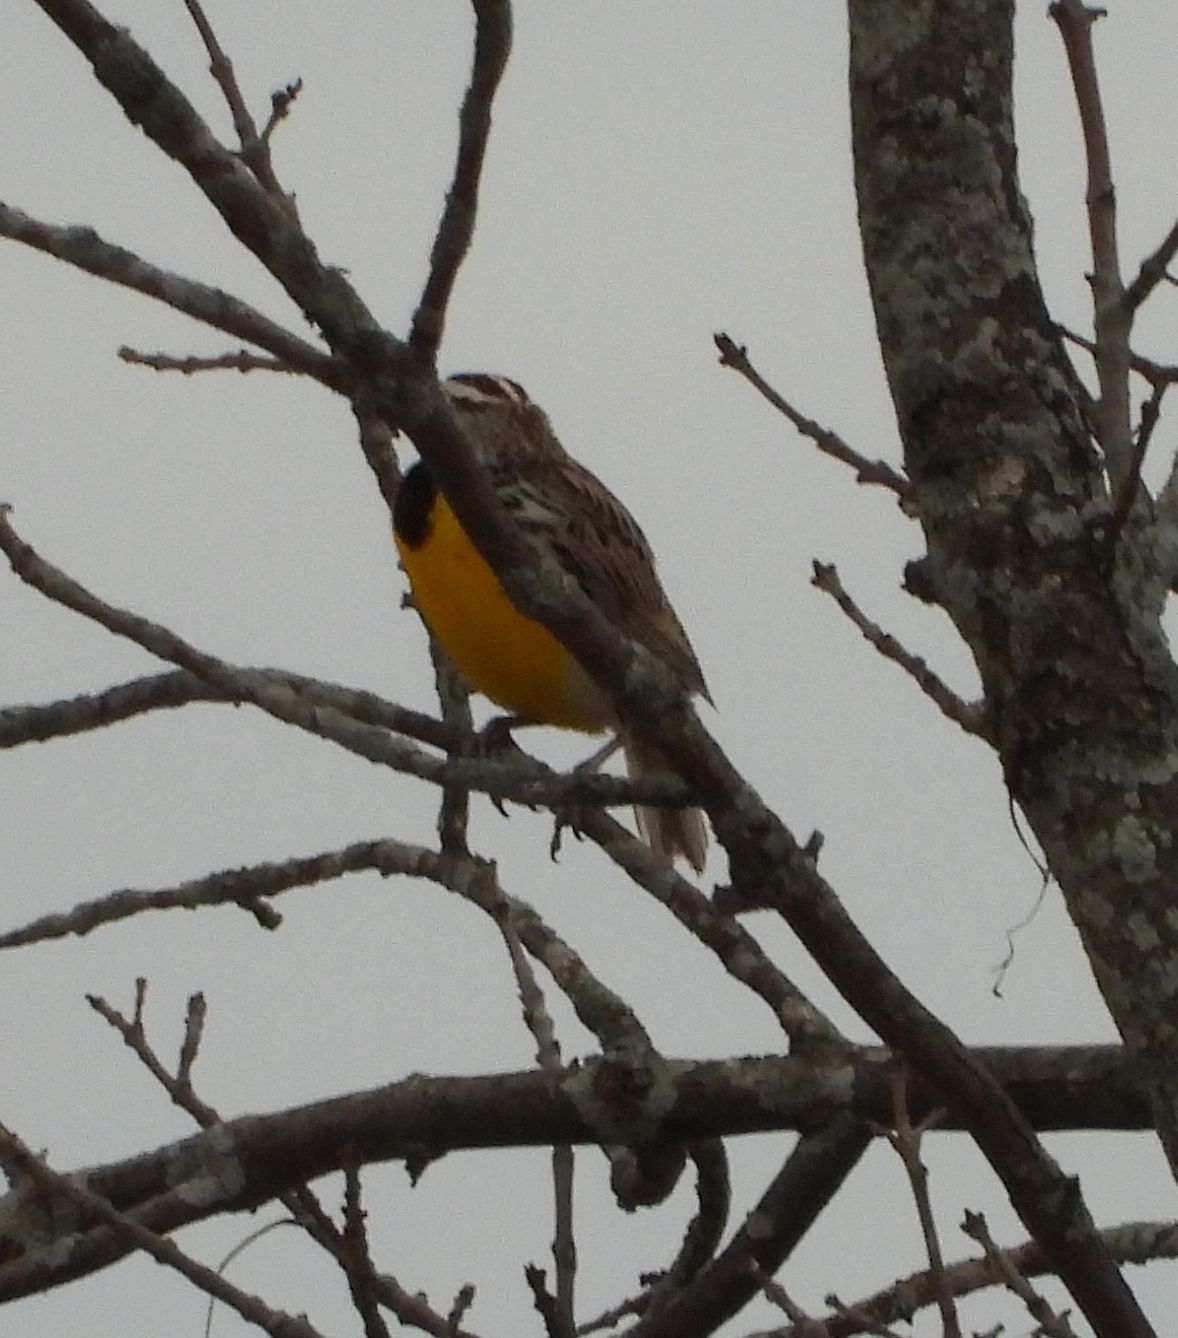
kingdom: Animalia
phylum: Chordata
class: Aves
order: Passeriformes
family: Icteridae
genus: Sturnella
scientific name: Sturnella magna
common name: Eastern meadowlark
